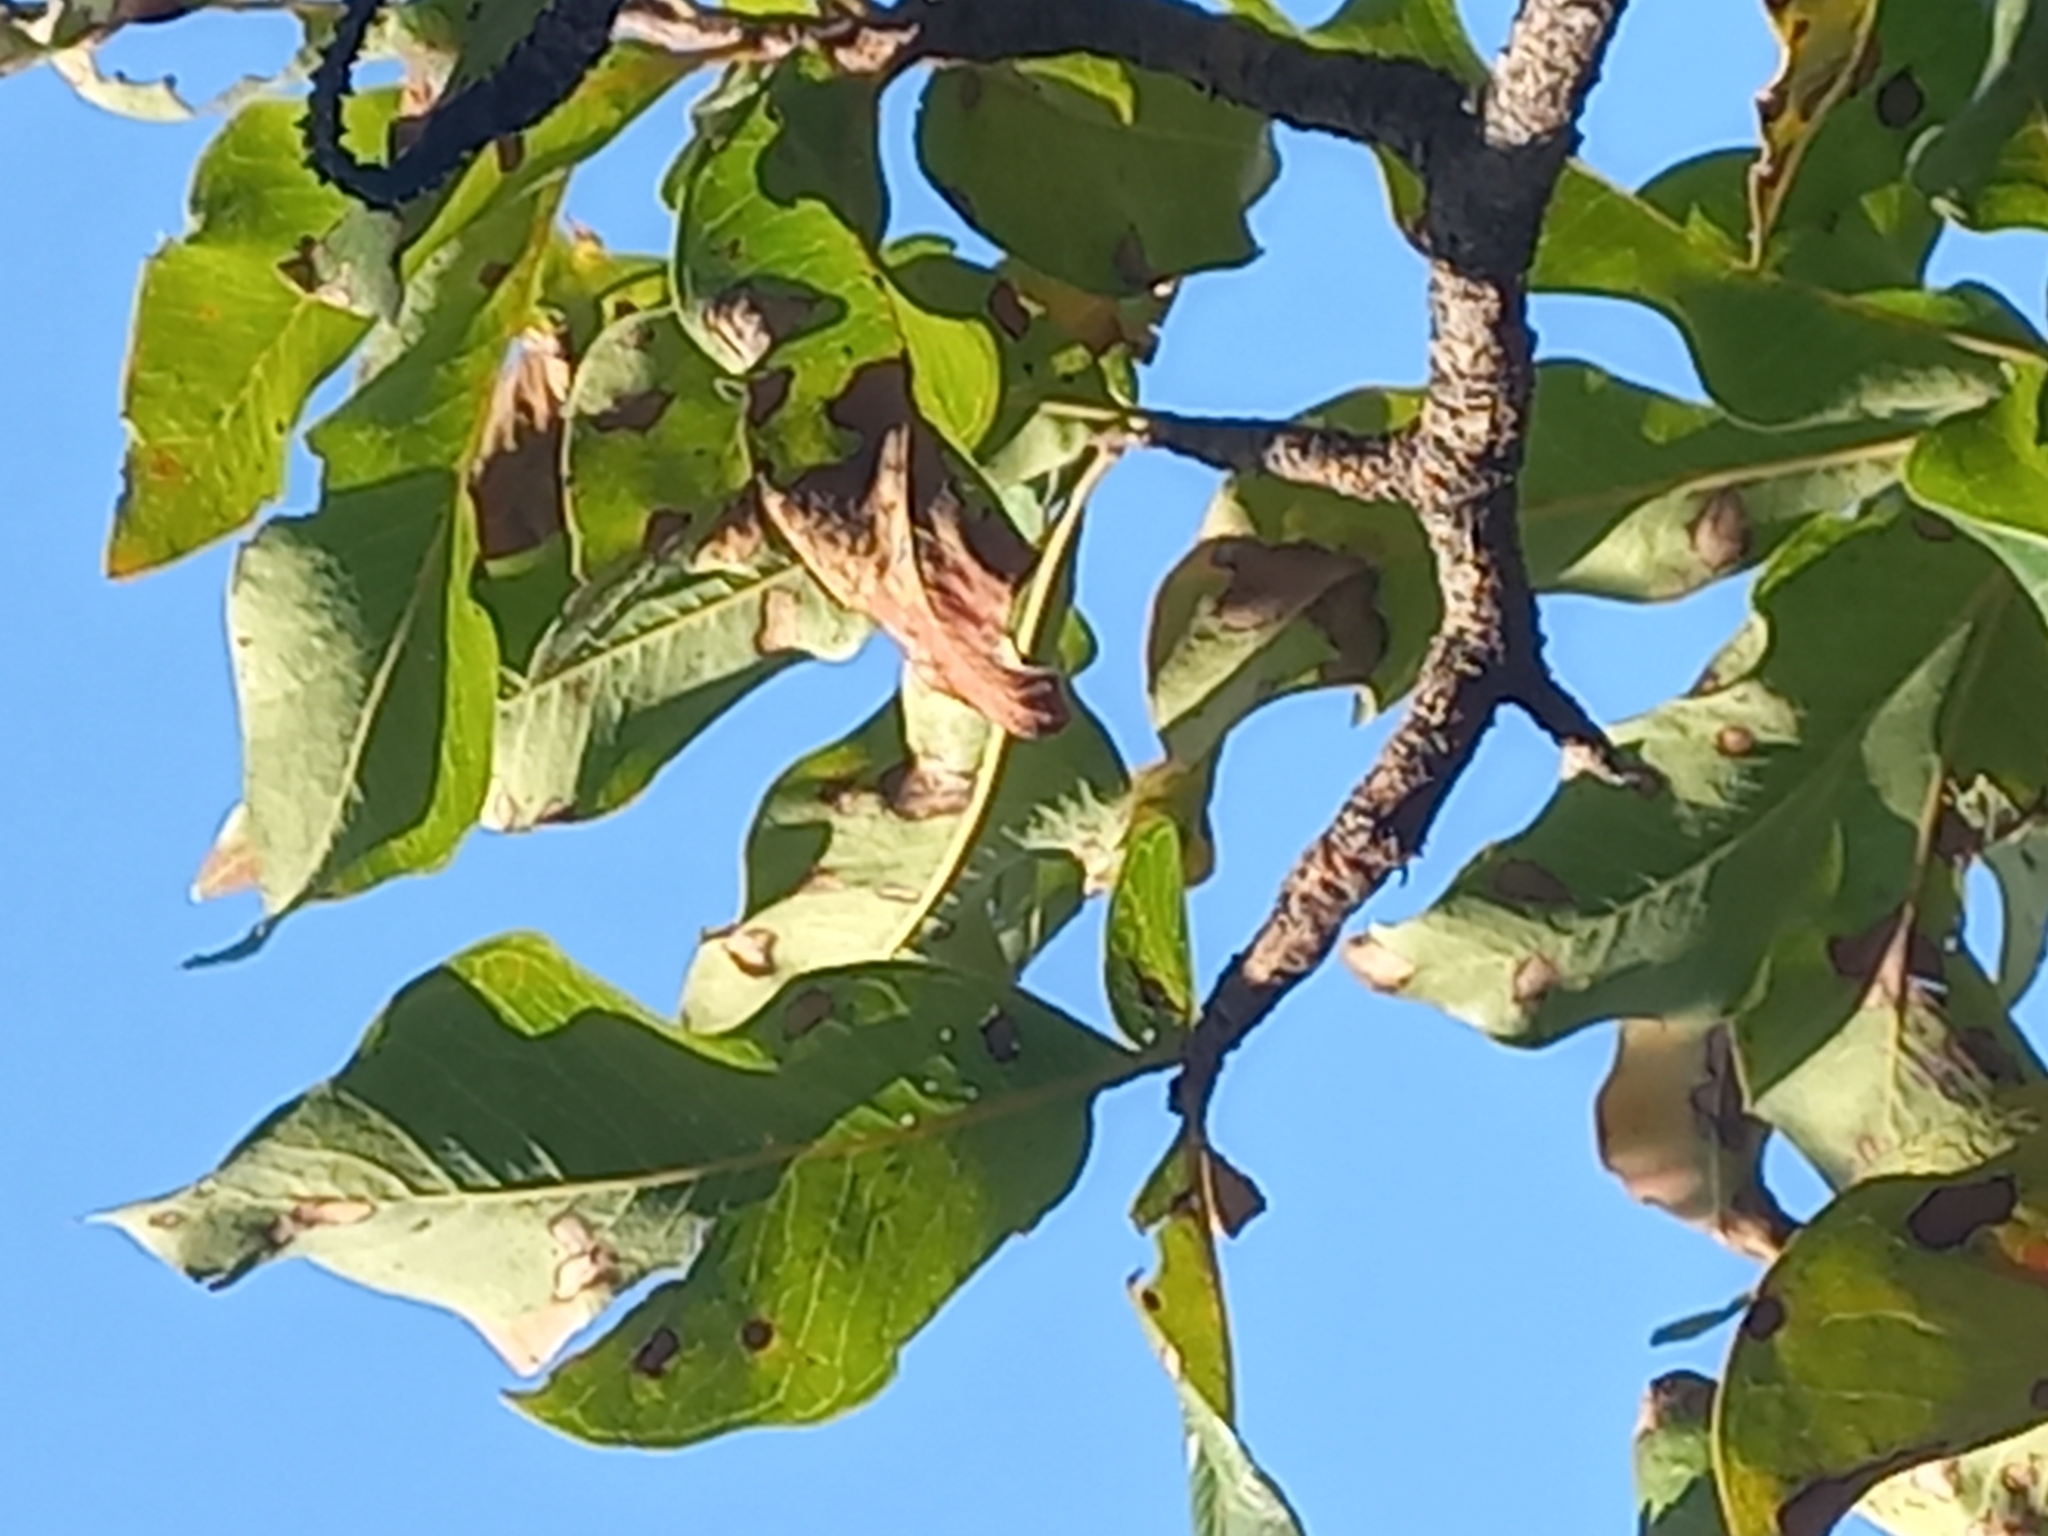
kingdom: Plantae
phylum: Tracheophyta
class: Magnoliopsida
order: Proteales
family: Proteaceae
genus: Faurea
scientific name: Faurea rochetiana
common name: Broad-leaved beech
